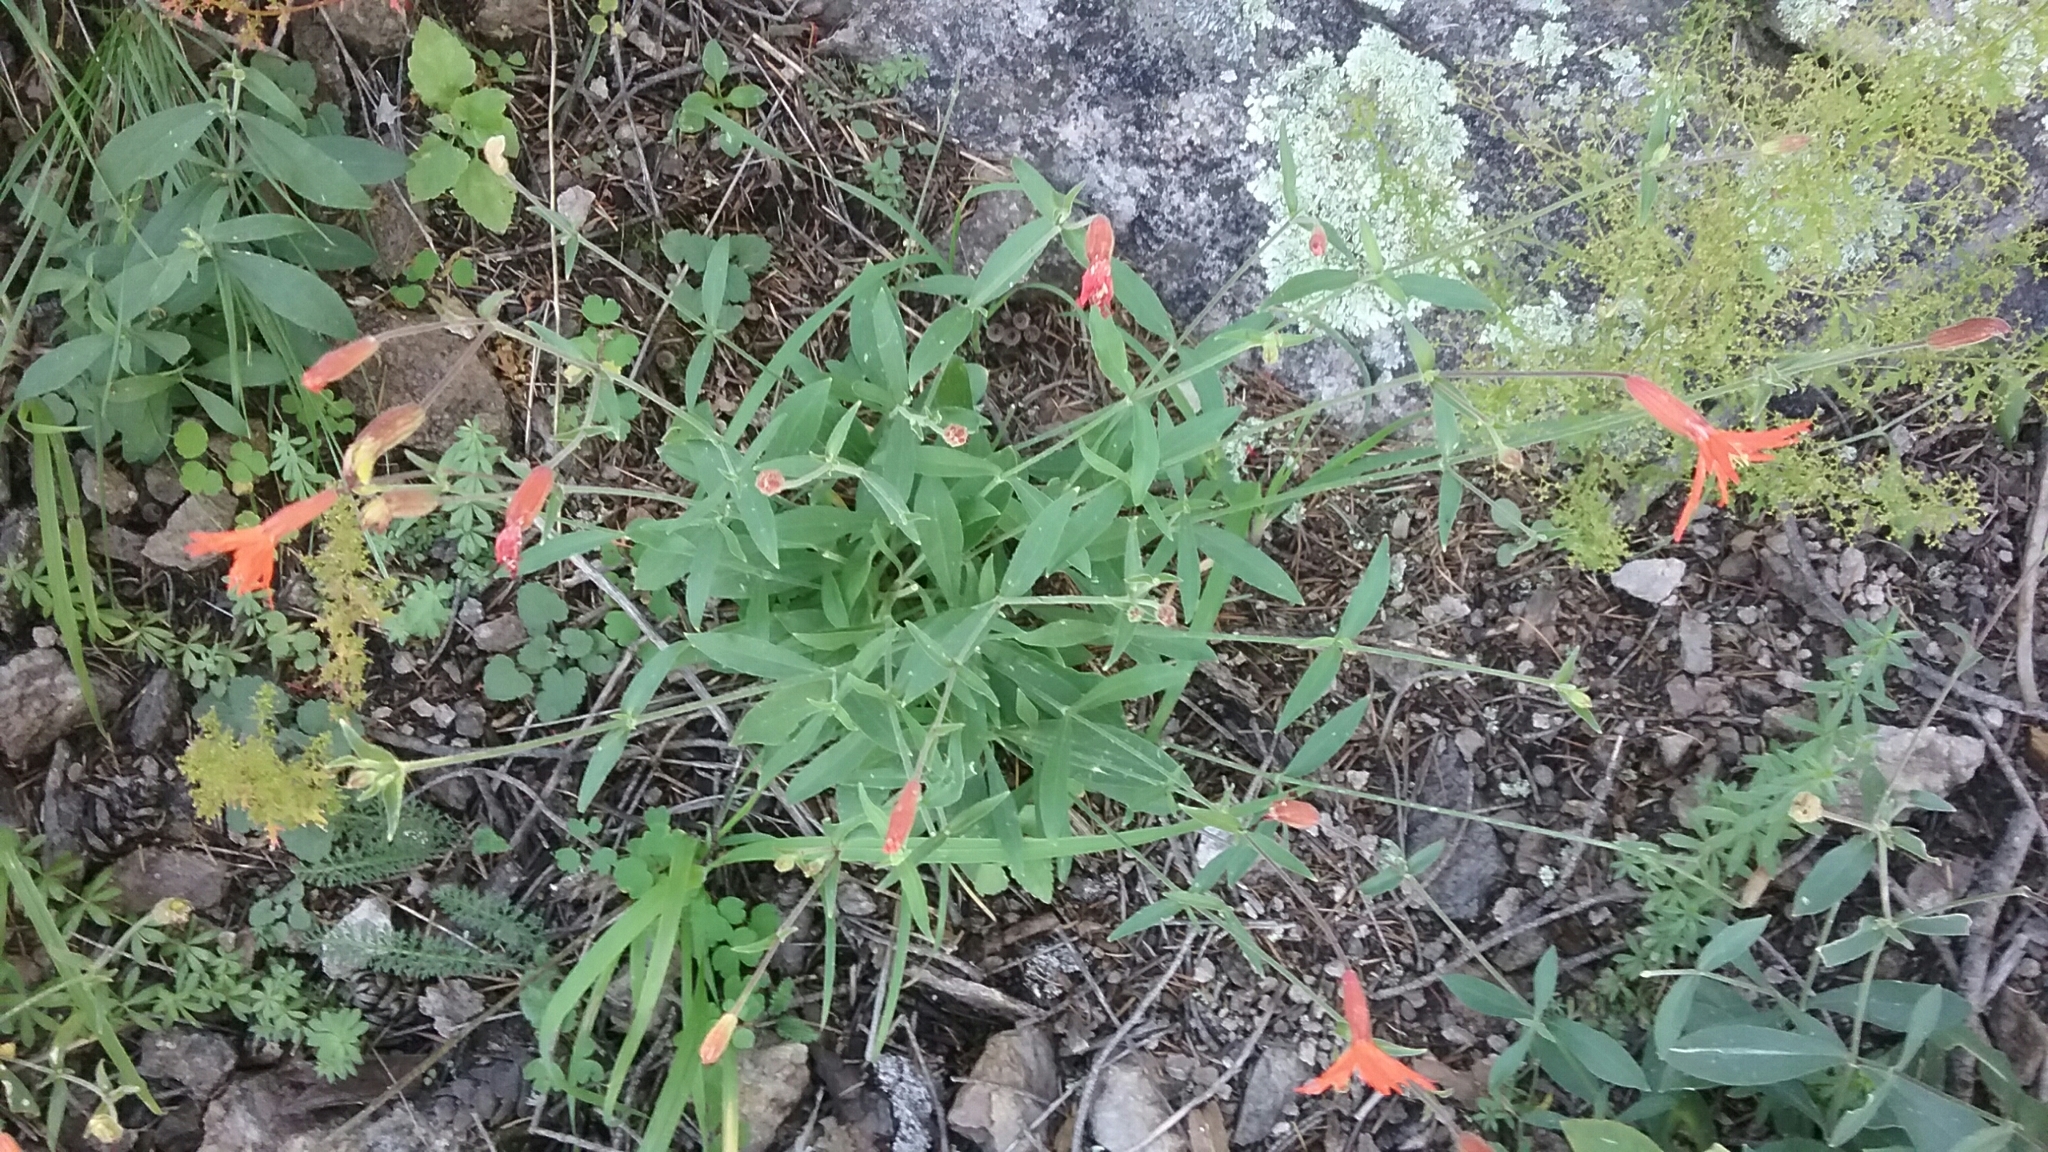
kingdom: Plantae
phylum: Tracheophyta
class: Magnoliopsida
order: Caryophyllales
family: Caryophyllaceae
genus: Silene
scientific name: Silene laciniata
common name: Indian-pink
